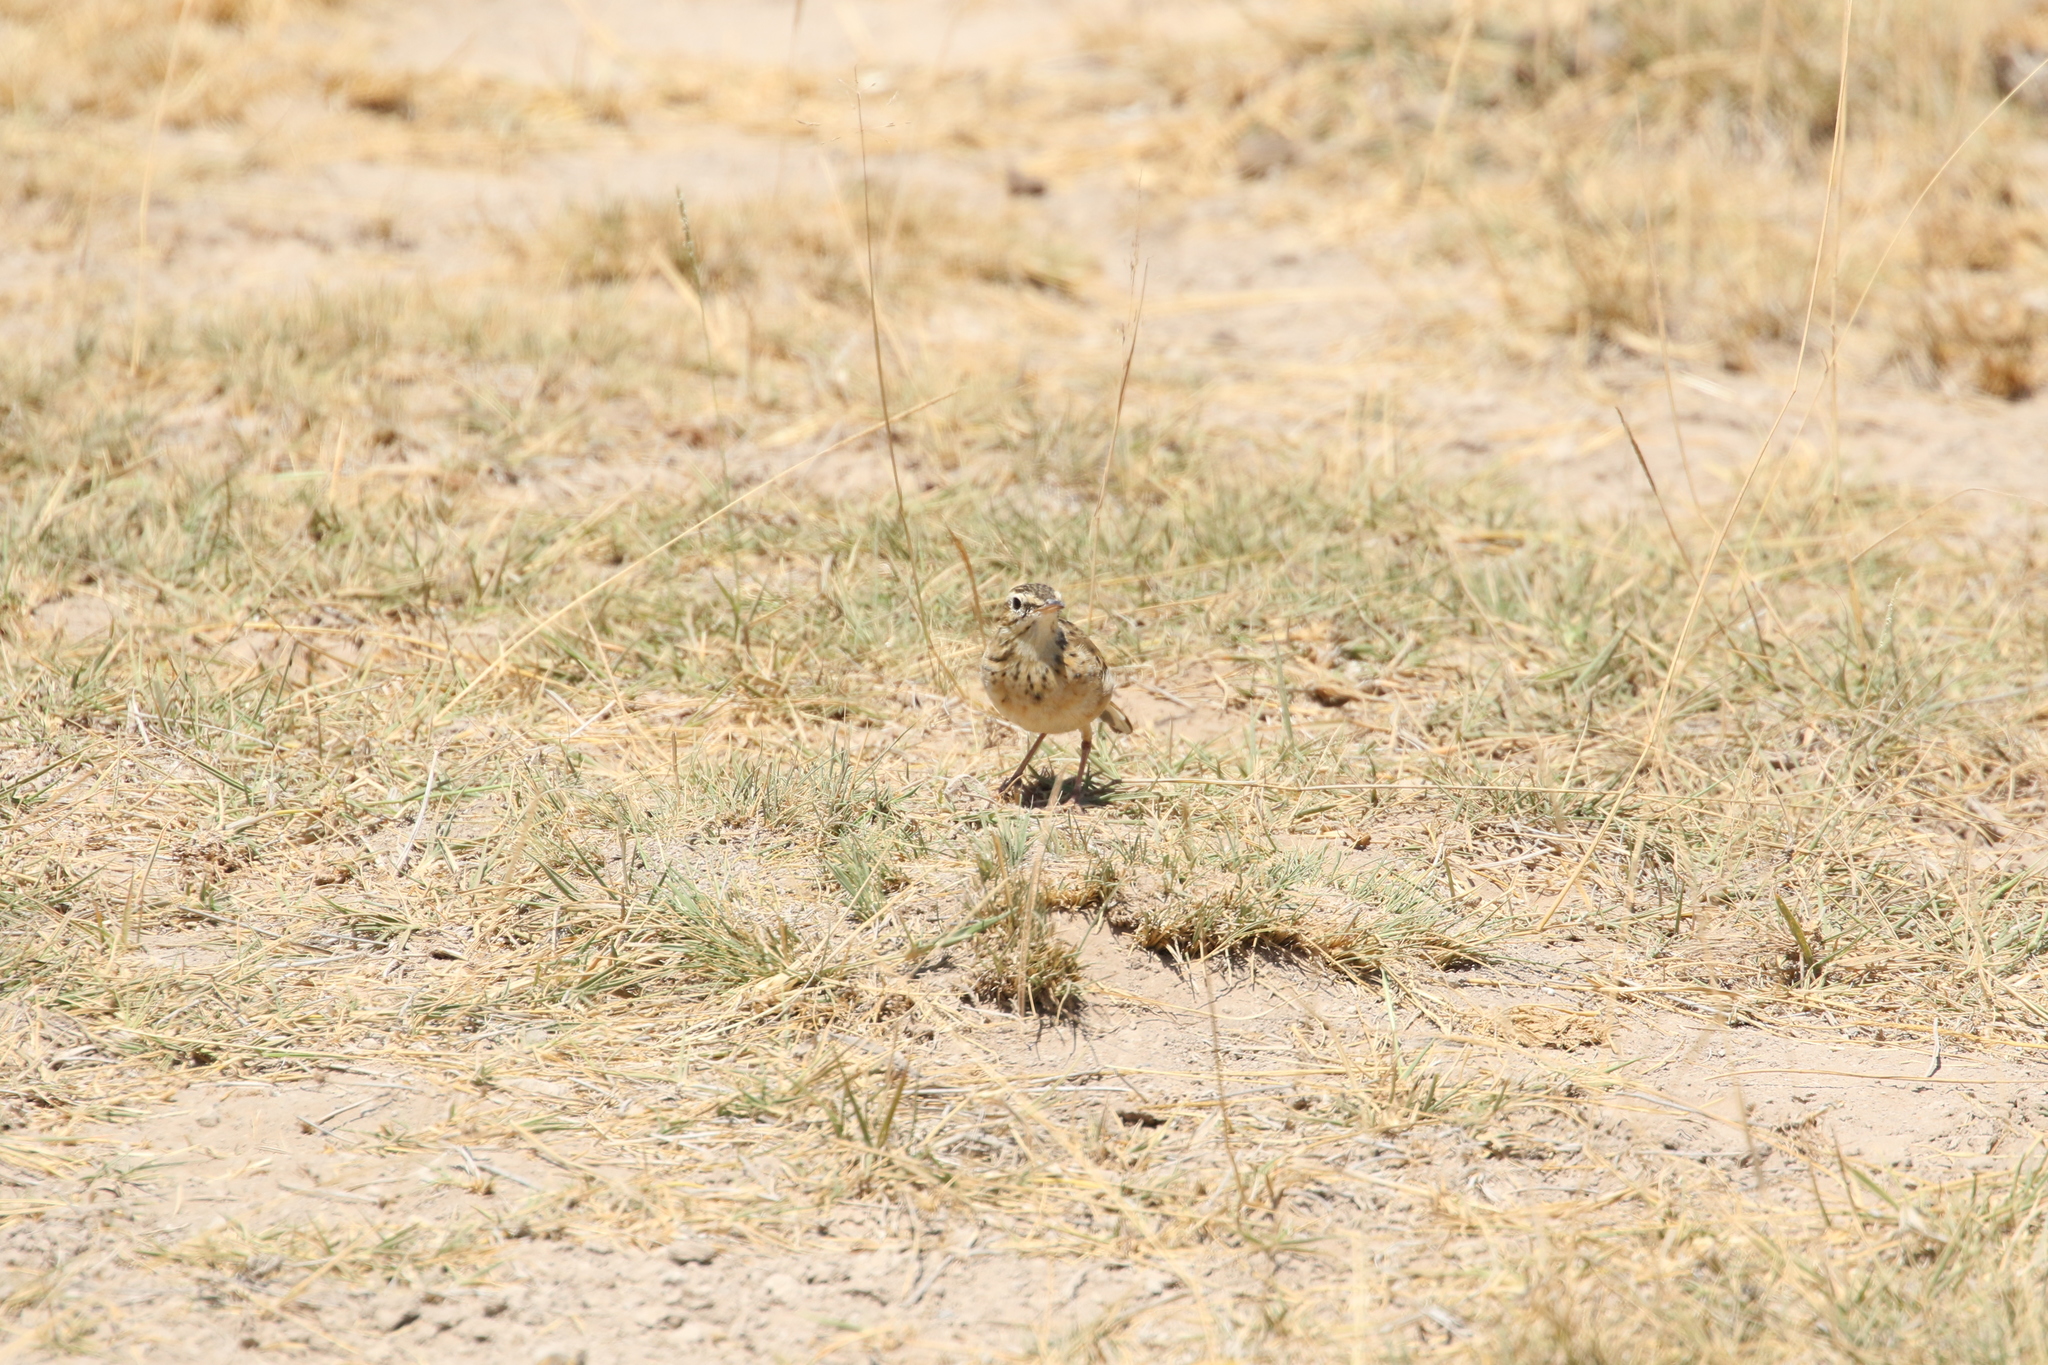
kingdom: Animalia
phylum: Chordata
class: Aves
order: Passeriformes
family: Motacillidae
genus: Anthus
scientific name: Anthus cinnamomeus
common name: African pipit
